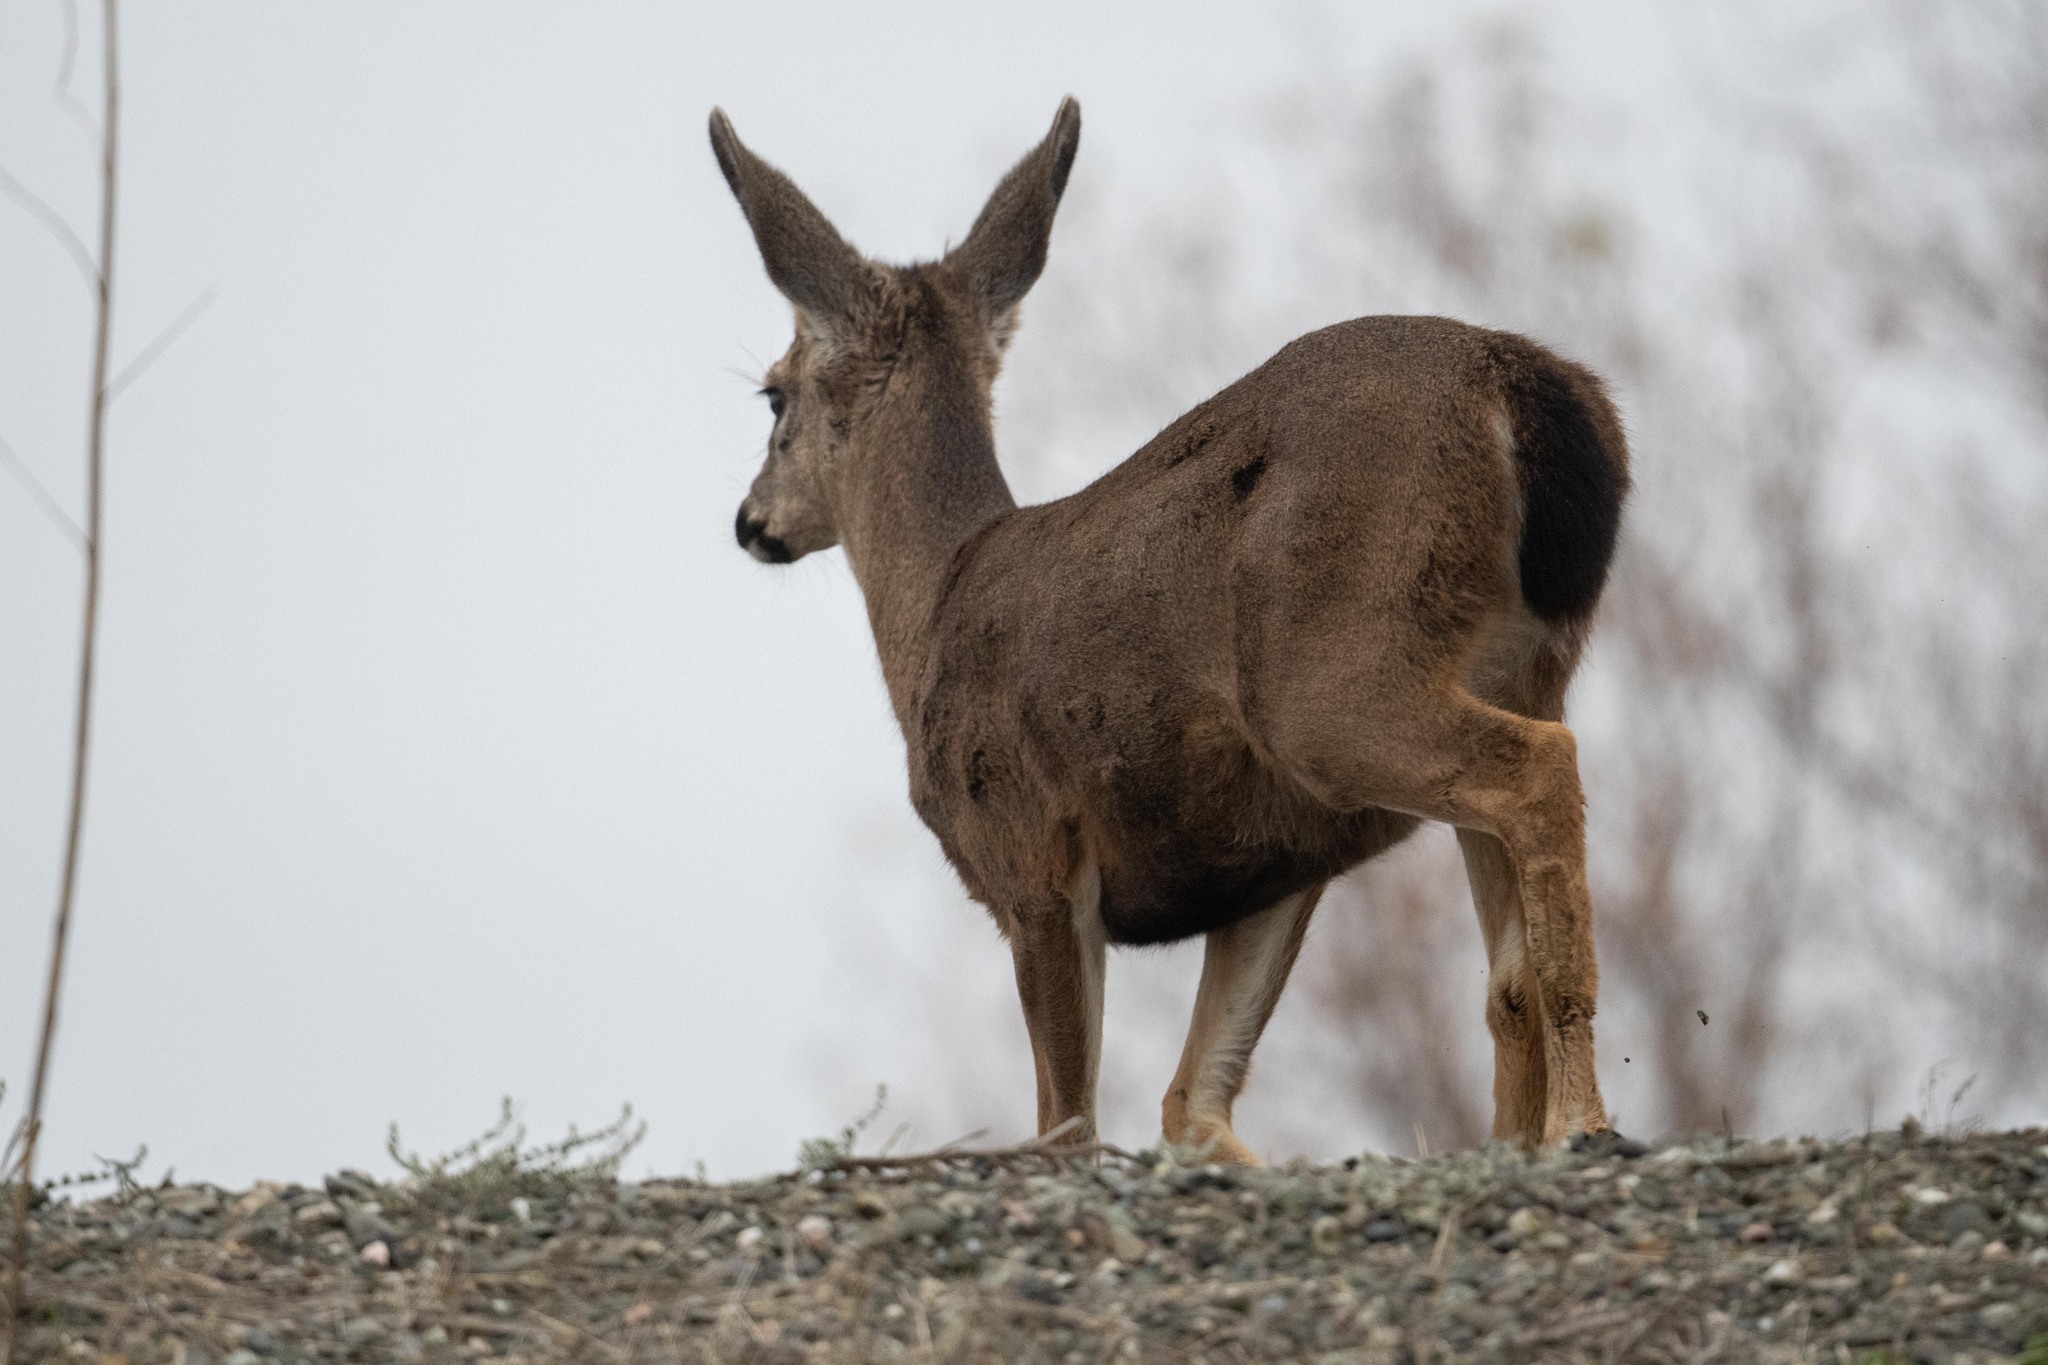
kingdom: Animalia
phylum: Chordata
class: Mammalia
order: Artiodactyla
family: Cervidae
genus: Odocoileus
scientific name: Odocoileus hemionus
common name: Mule deer
